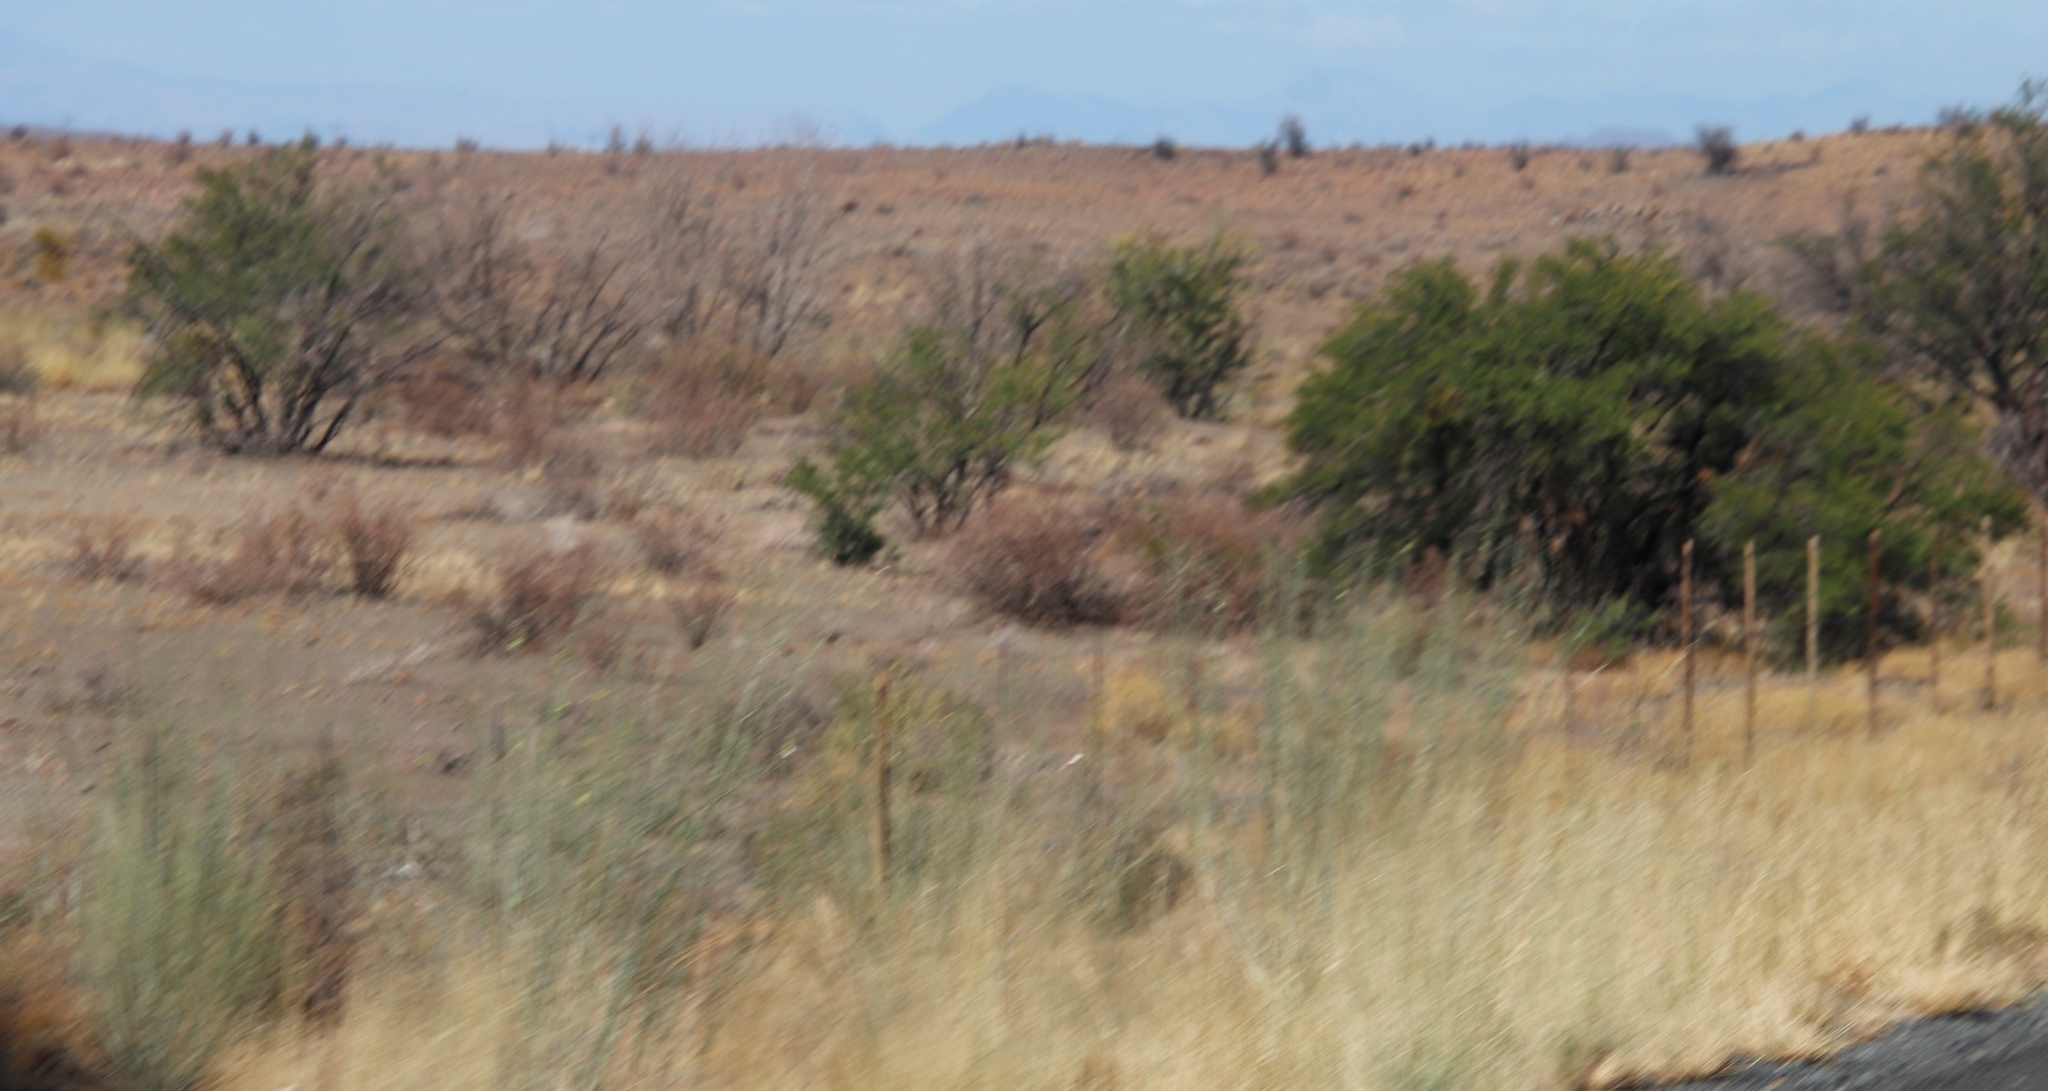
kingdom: Plantae
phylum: Tracheophyta
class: Magnoliopsida
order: Fabales
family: Fabaceae
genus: Vachellia
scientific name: Vachellia karroo
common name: Sweet thorn
